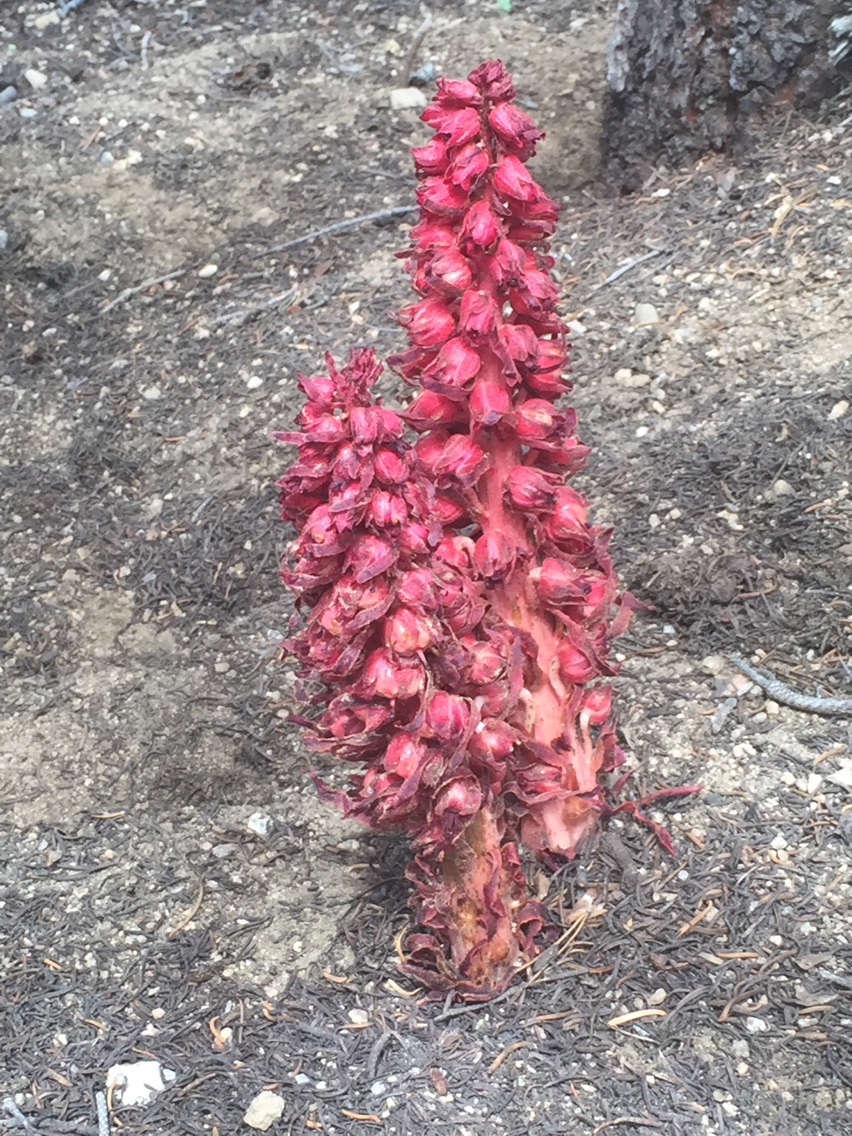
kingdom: Plantae
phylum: Tracheophyta
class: Magnoliopsida
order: Ericales
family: Ericaceae
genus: Sarcodes
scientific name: Sarcodes sanguinea
